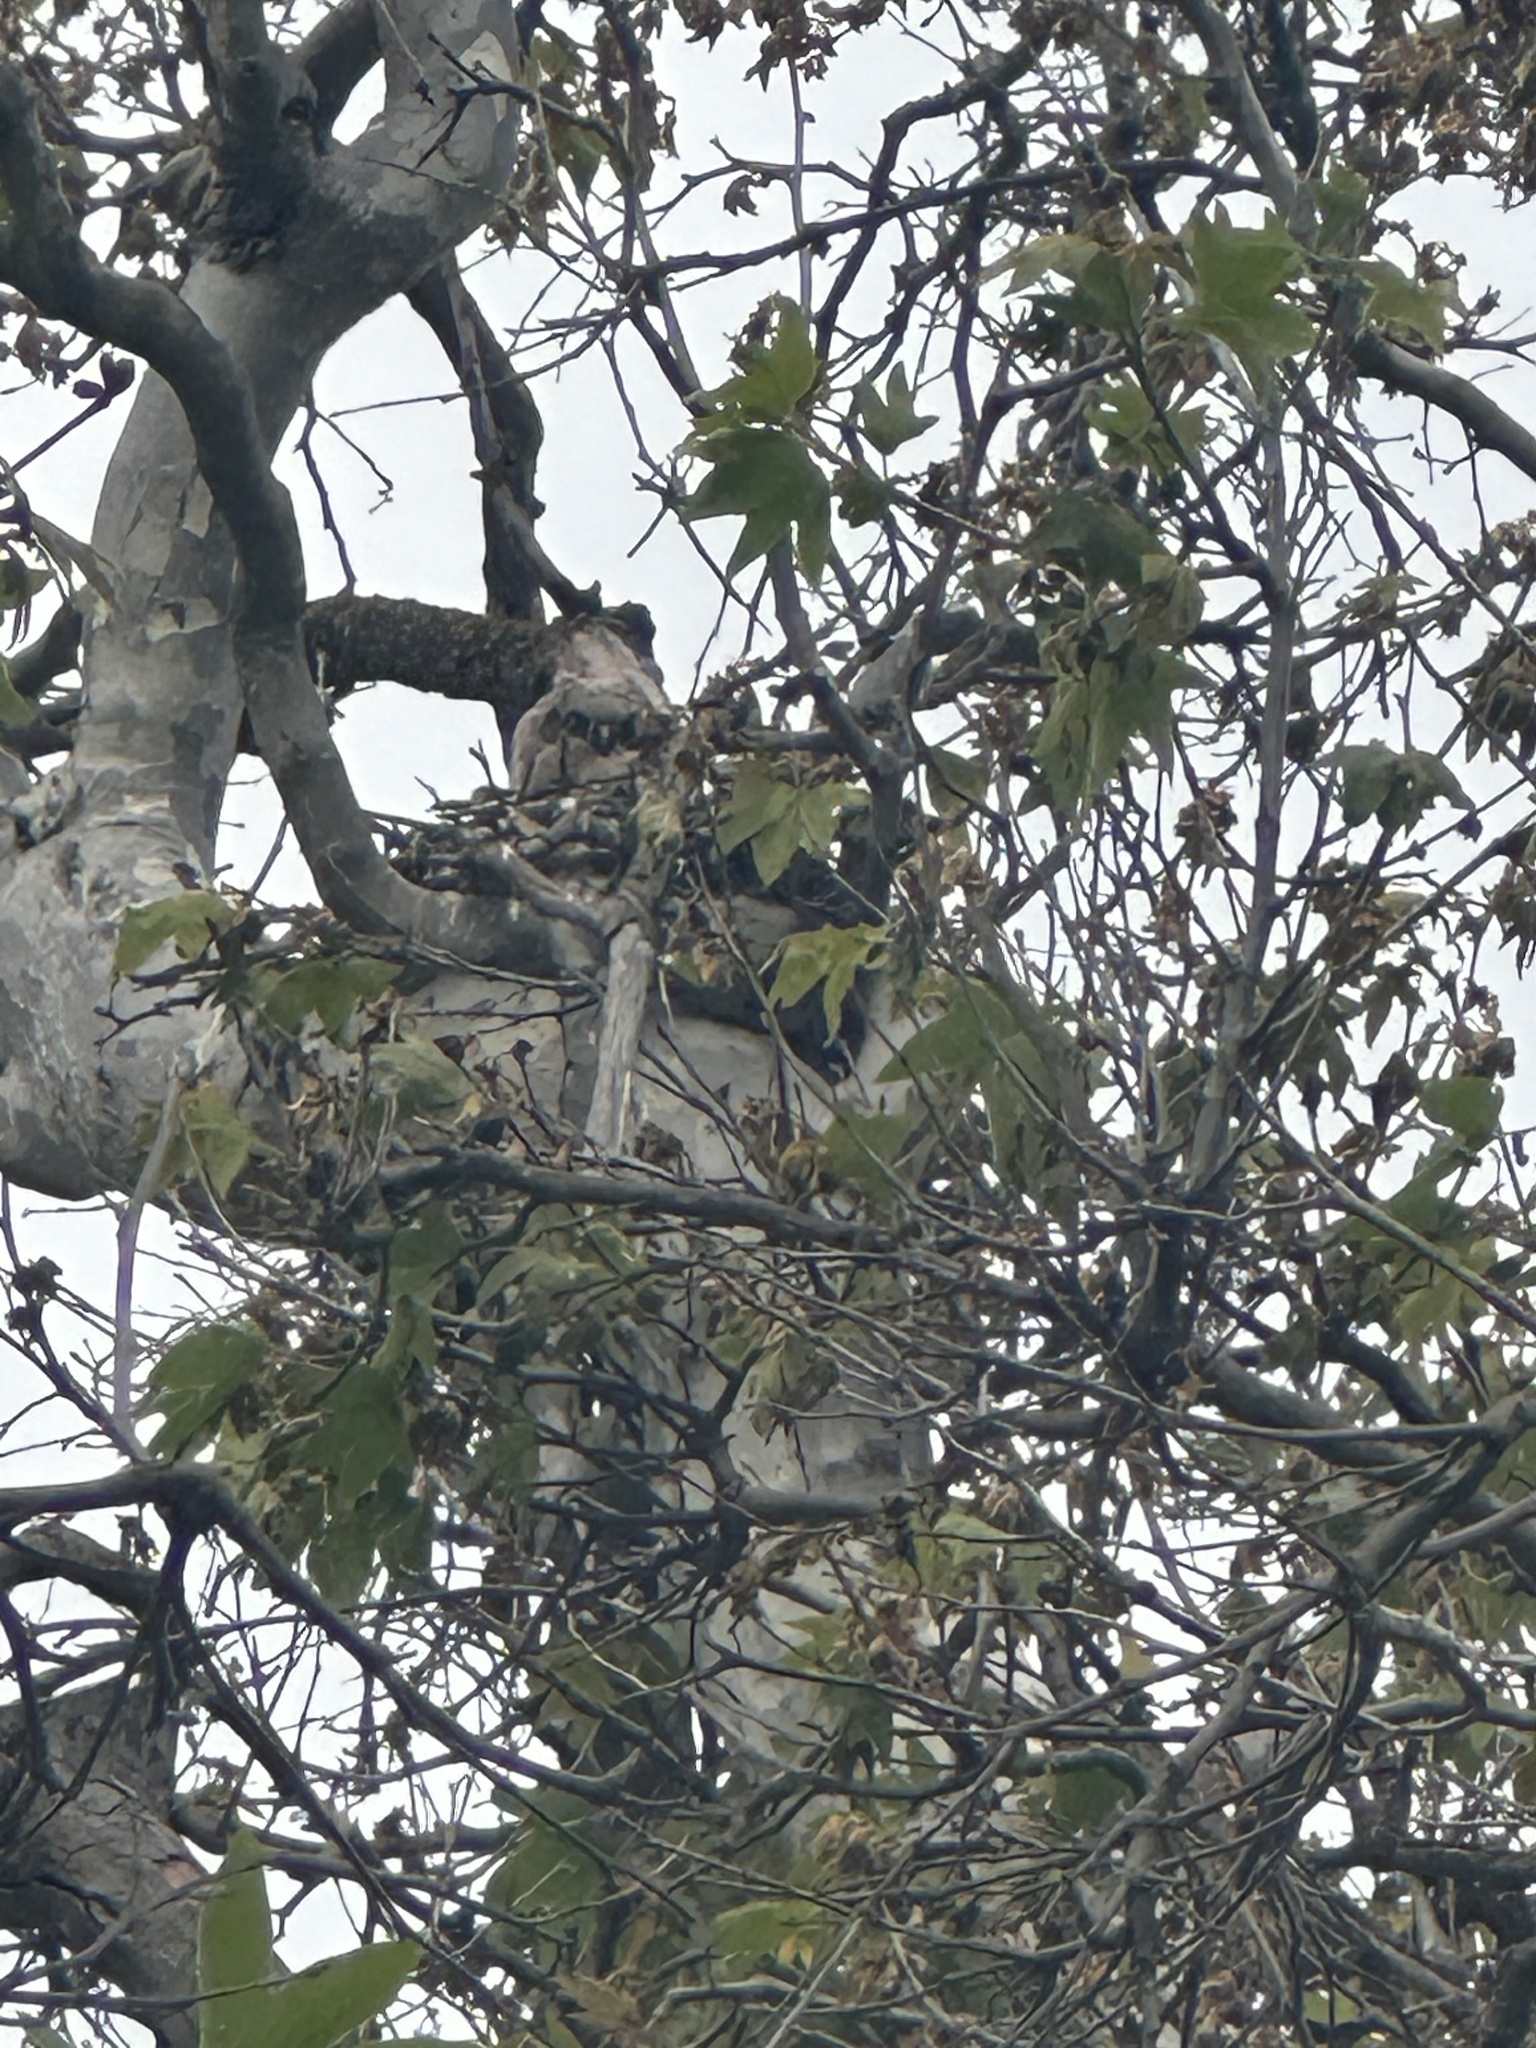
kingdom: Animalia
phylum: Chordata
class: Aves
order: Strigiformes
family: Strigidae
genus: Bubo
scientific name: Bubo virginianus
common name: Great horned owl
